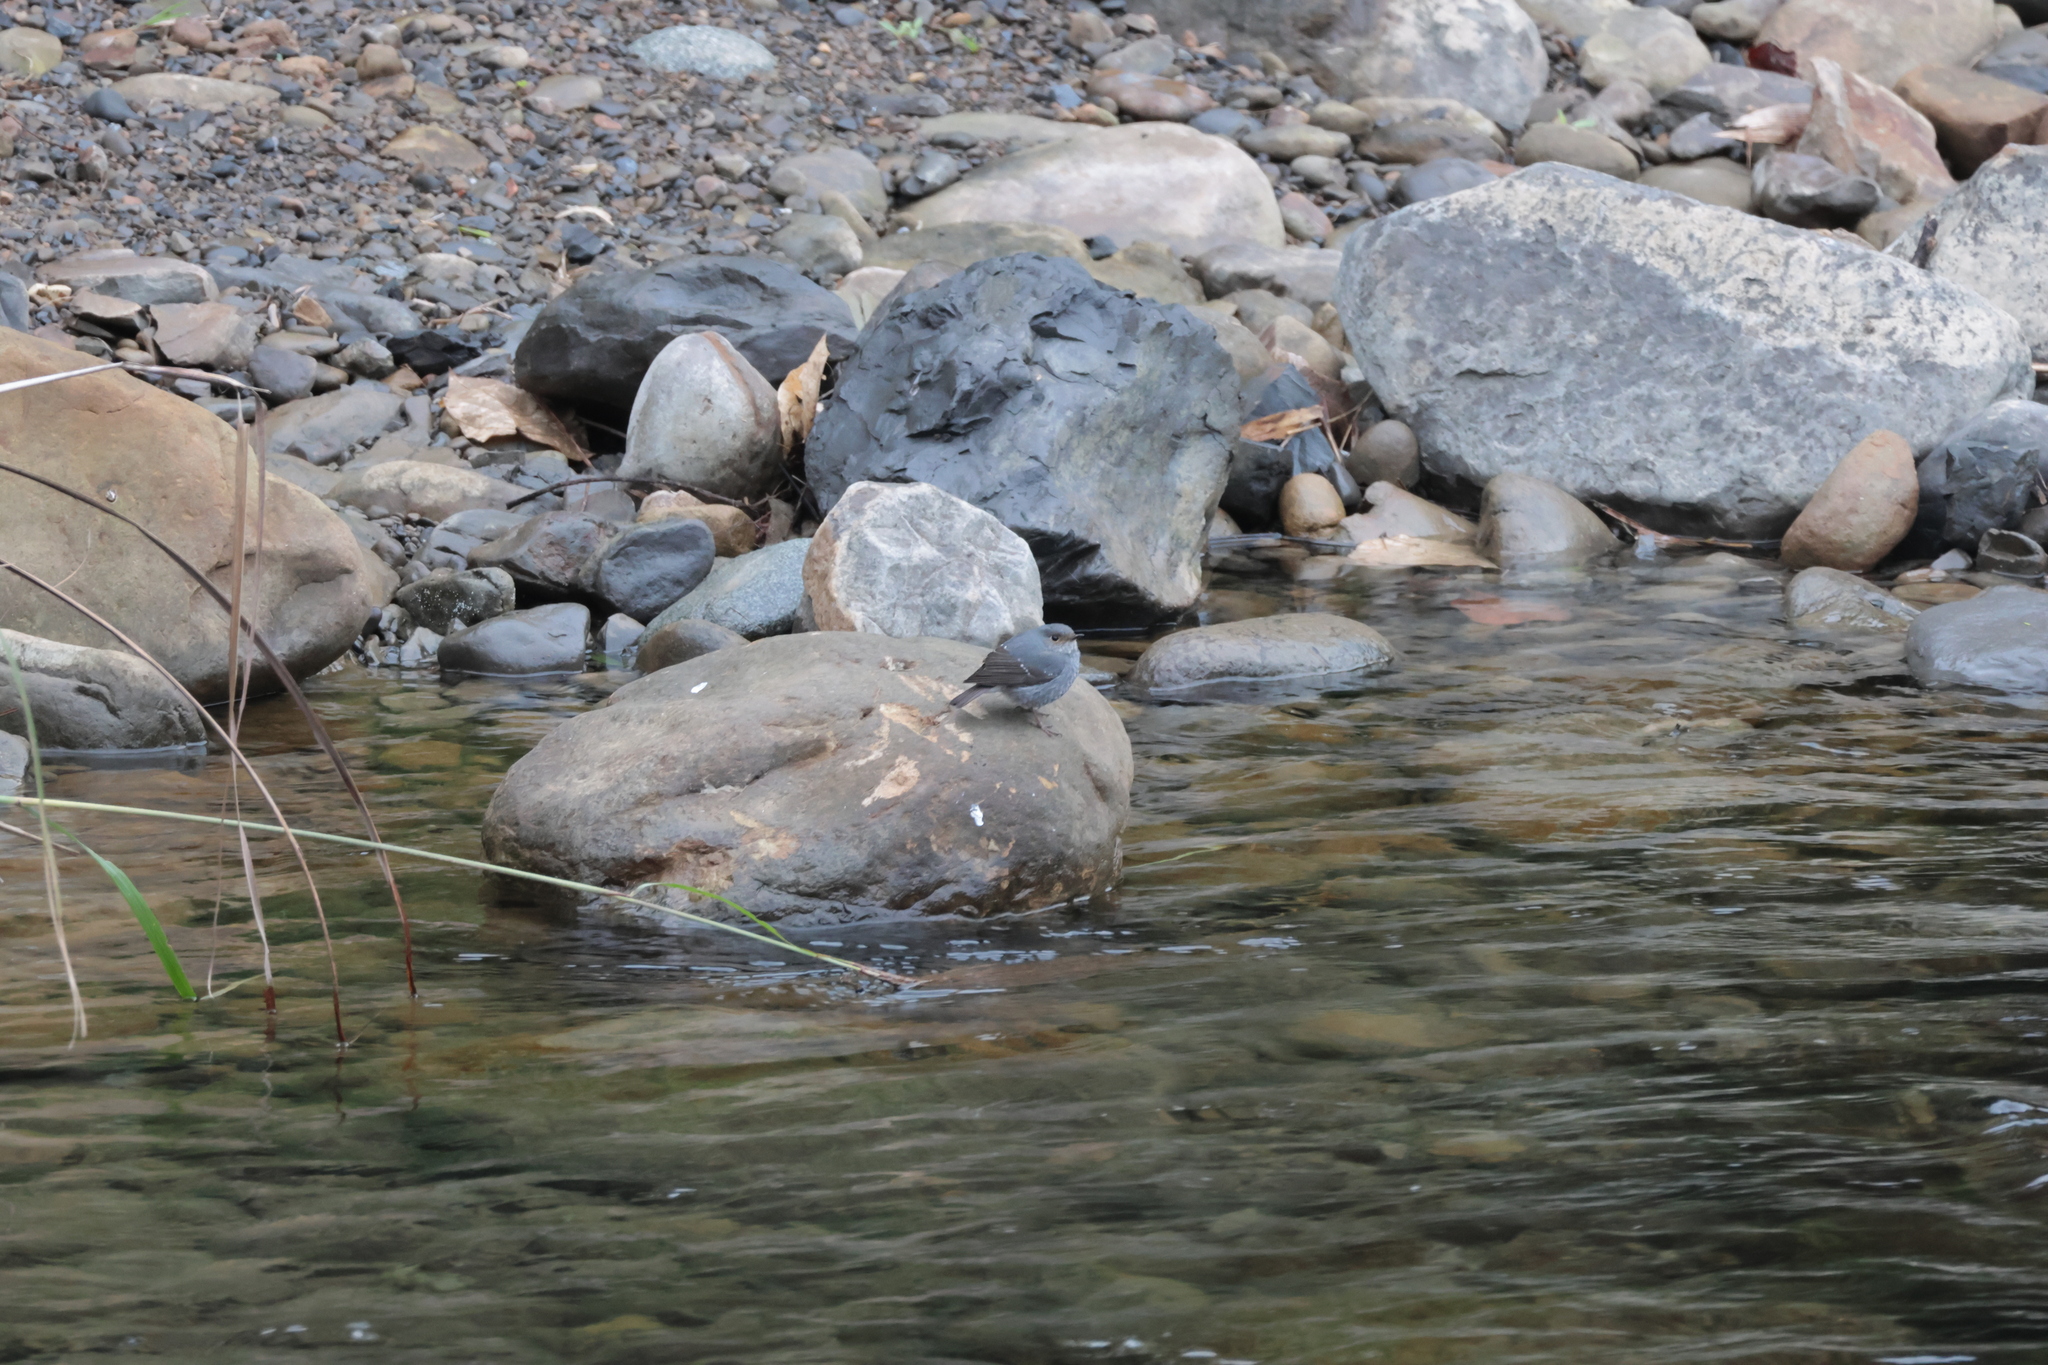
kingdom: Animalia
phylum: Chordata
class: Aves
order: Passeriformes
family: Muscicapidae
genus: Phoenicurus
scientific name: Phoenicurus fuliginosus
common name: Plumbeous water redstart
